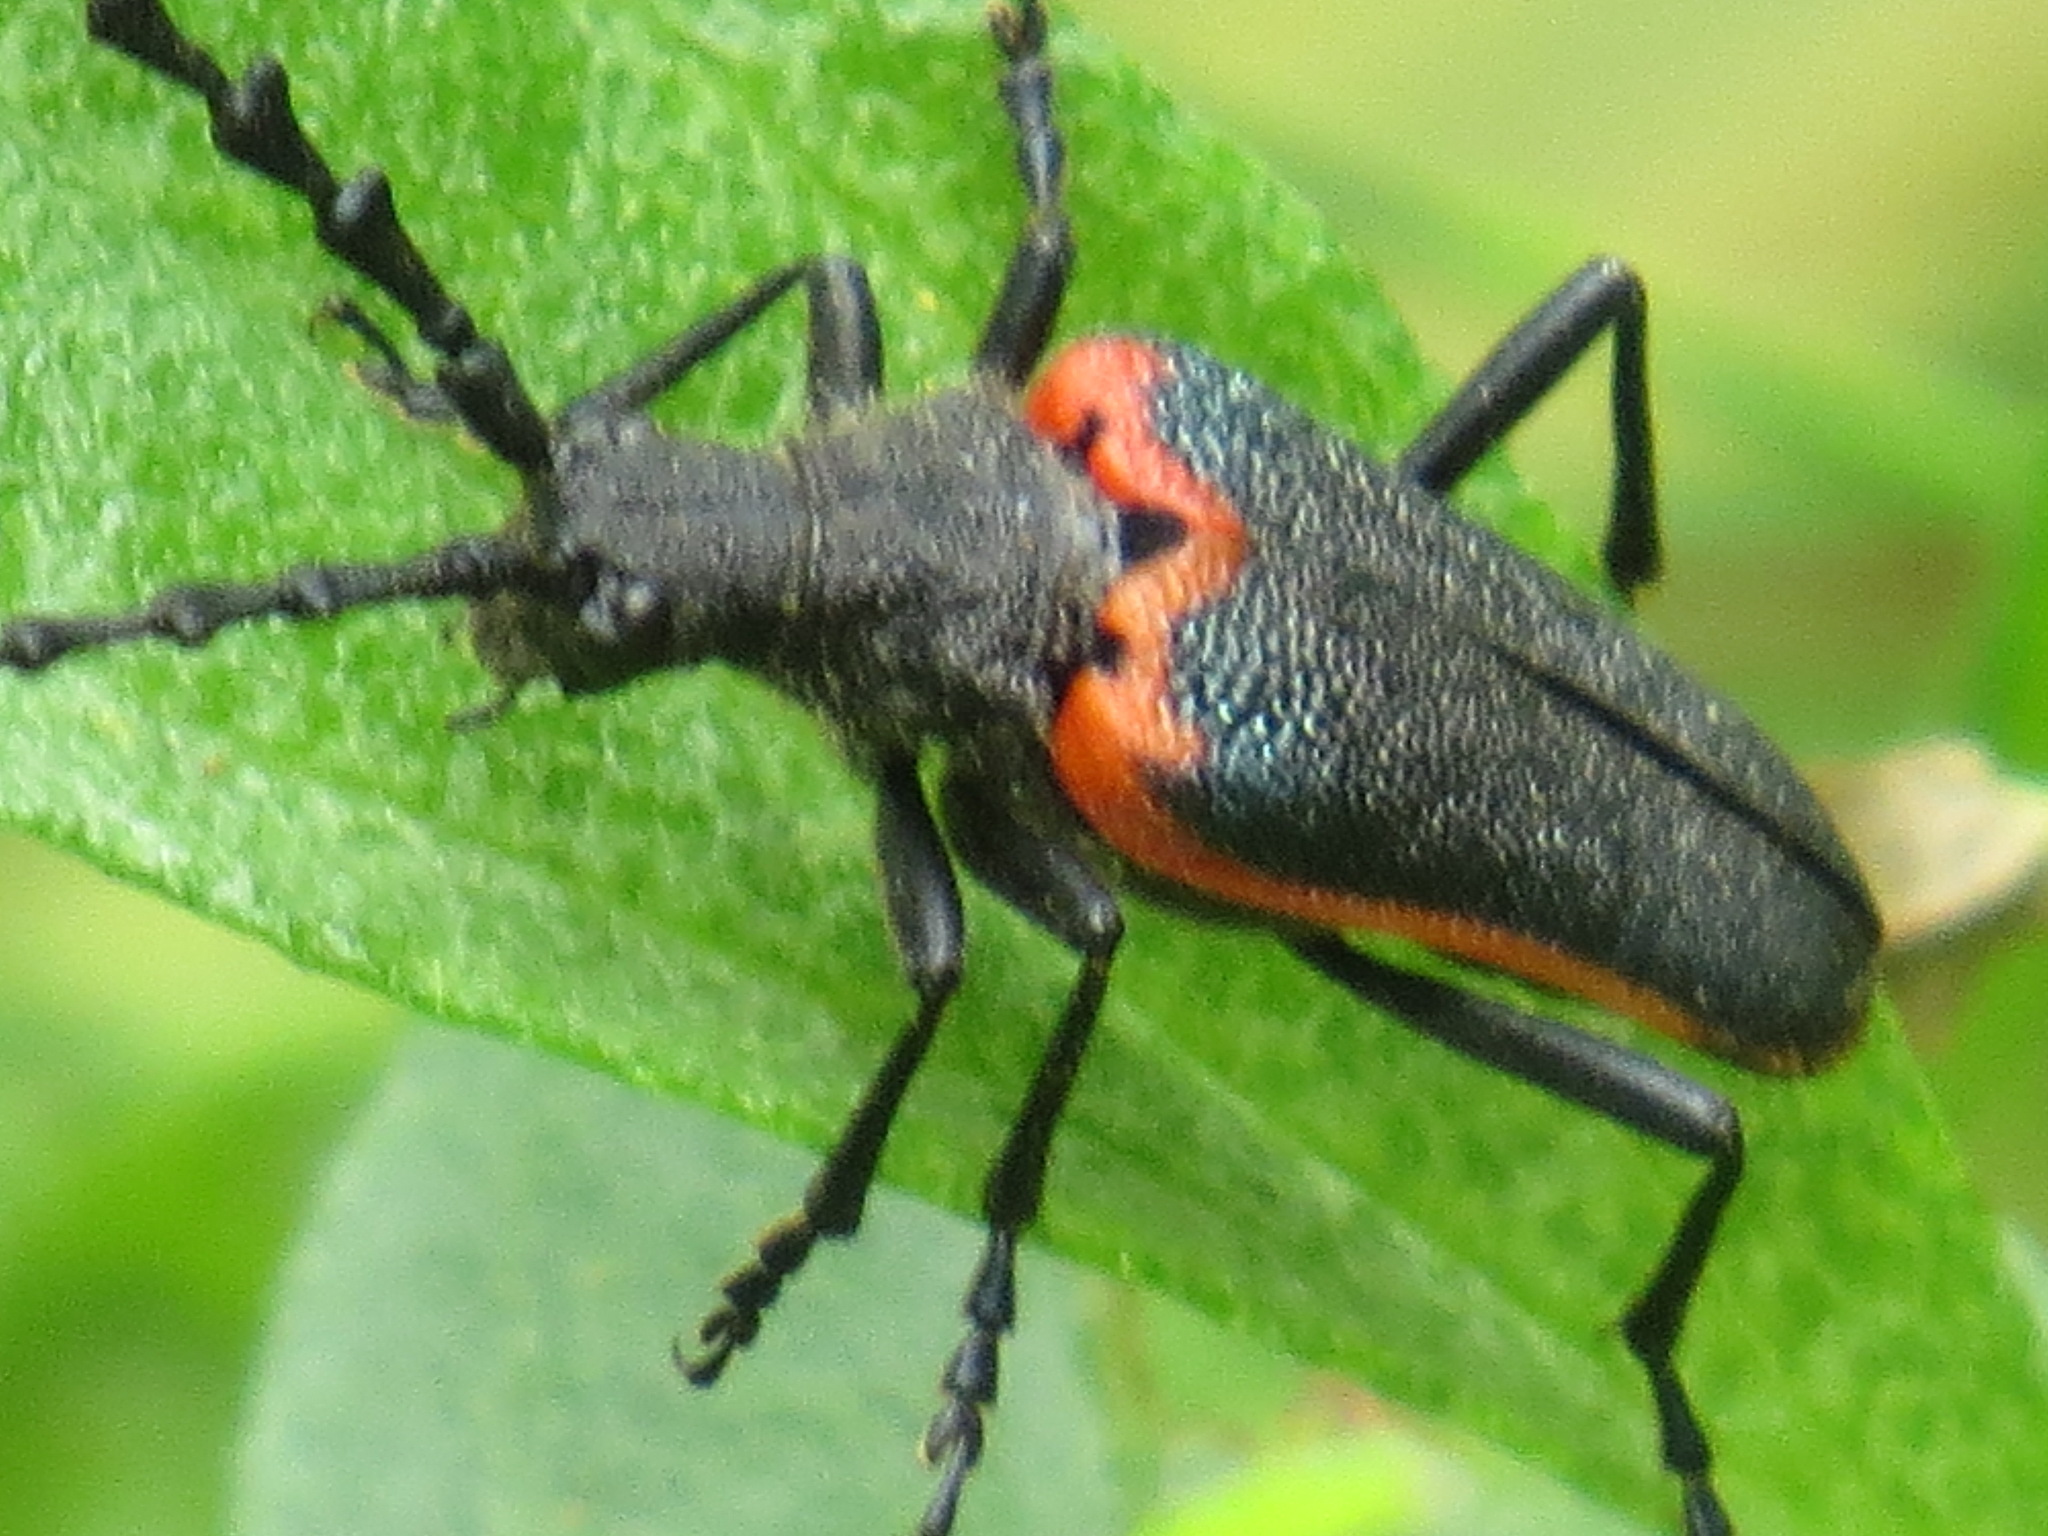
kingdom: Animalia
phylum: Arthropoda
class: Insecta
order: Coleoptera
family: Cerambycidae
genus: Desmocerus
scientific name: Desmocerus aureipennis
